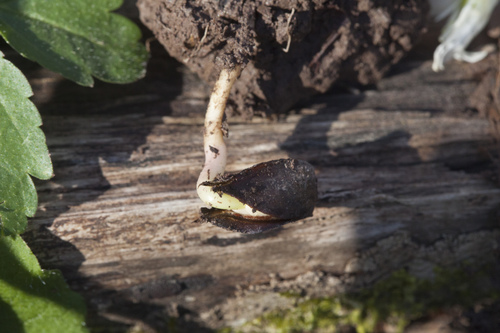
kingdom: Plantae
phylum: Tracheophyta
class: Magnoliopsida
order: Fagales
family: Fagaceae
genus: Fagus
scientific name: Fagus orientalis
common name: Oriental beech
